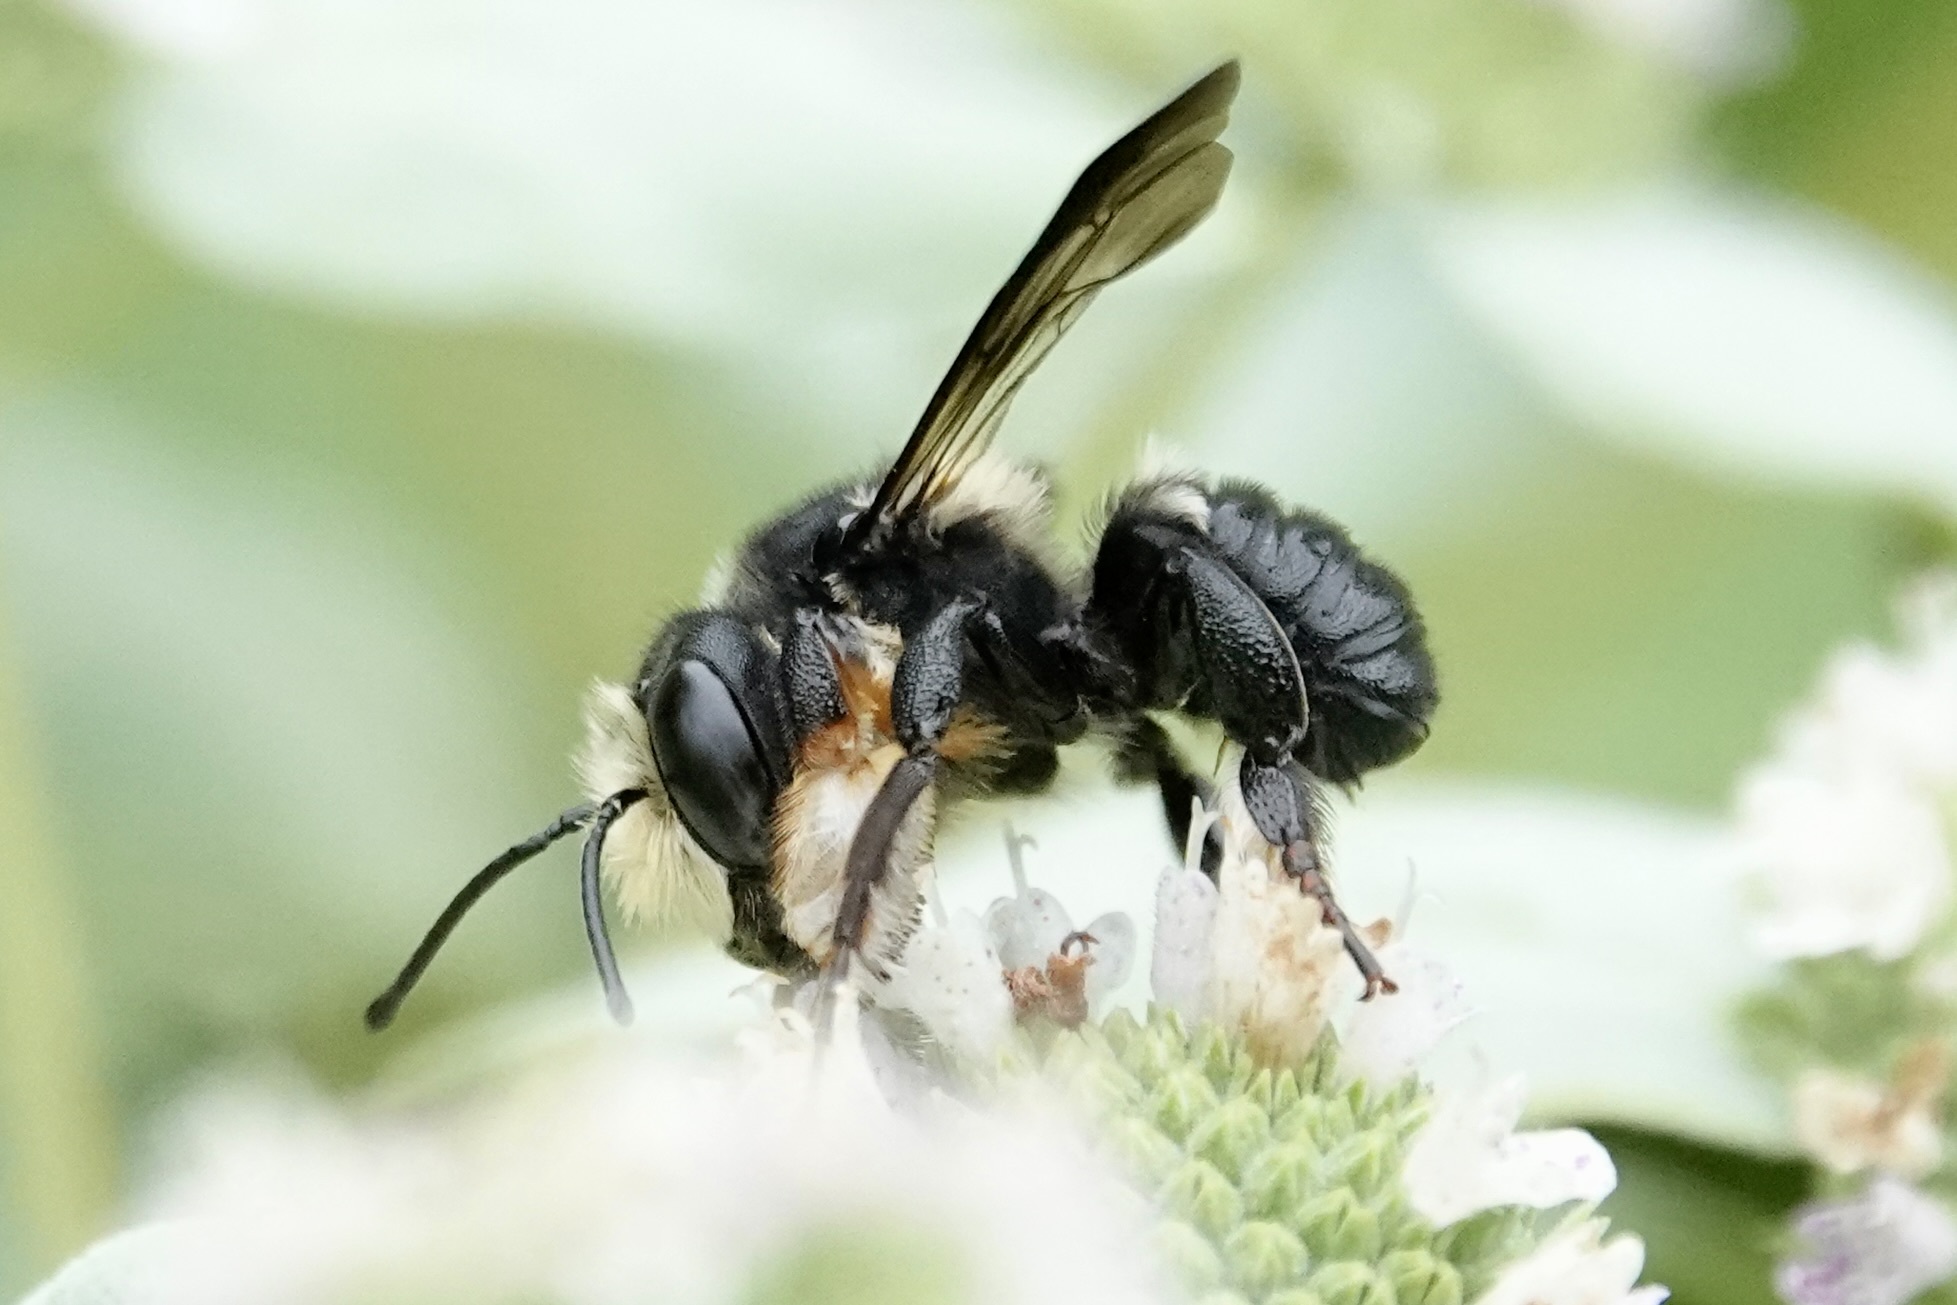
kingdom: Animalia
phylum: Arthropoda
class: Insecta
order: Hymenoptera
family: Megachilidae
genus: Megachile
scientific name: Megachile xylocopoides
